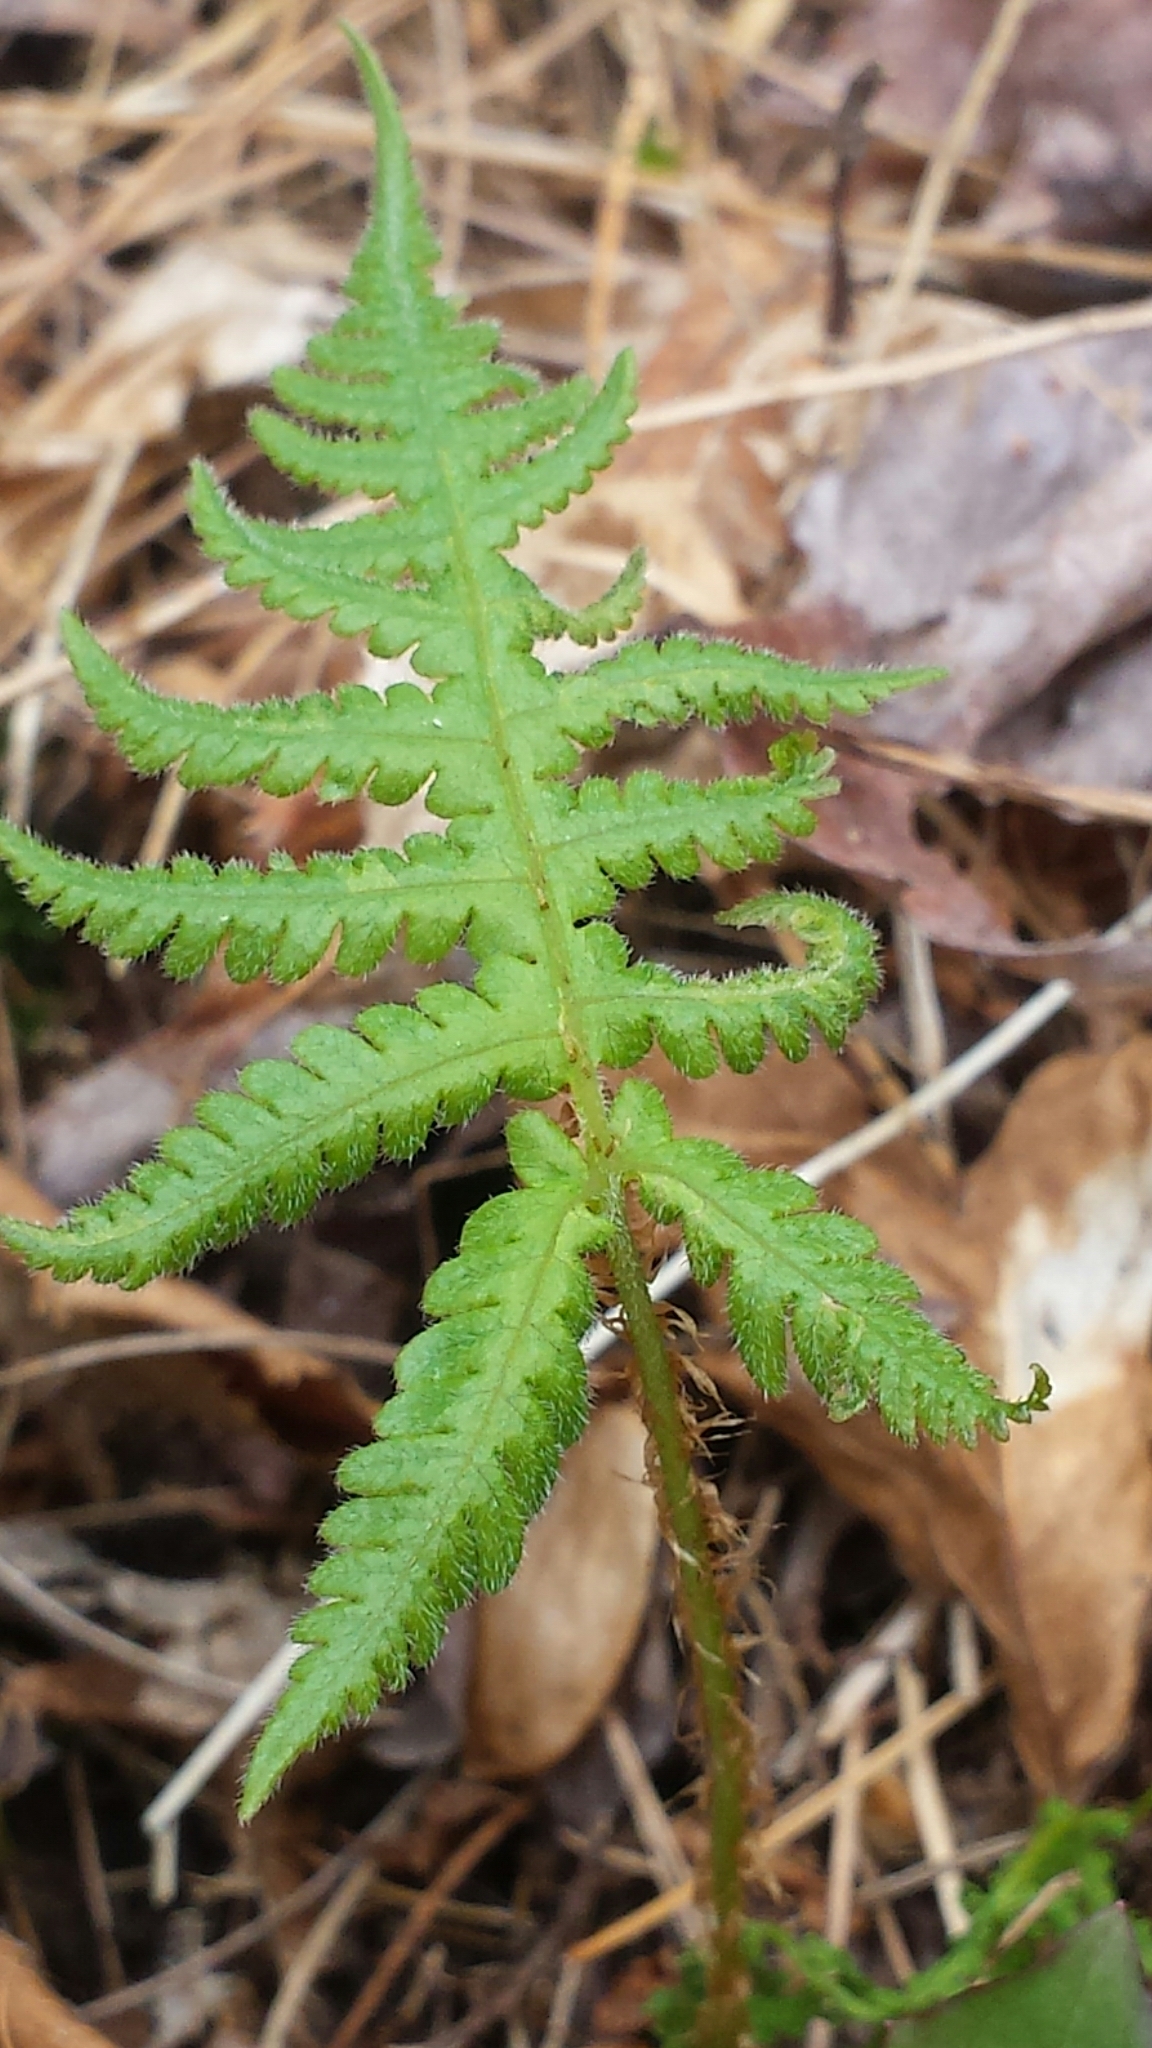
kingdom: Plantae
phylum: Tracheophyta
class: Polypodiopsida
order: Polypodiales
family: Thelypteridaceae
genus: Phegopteris
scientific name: Phegopteris connectilis
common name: Beech fern
